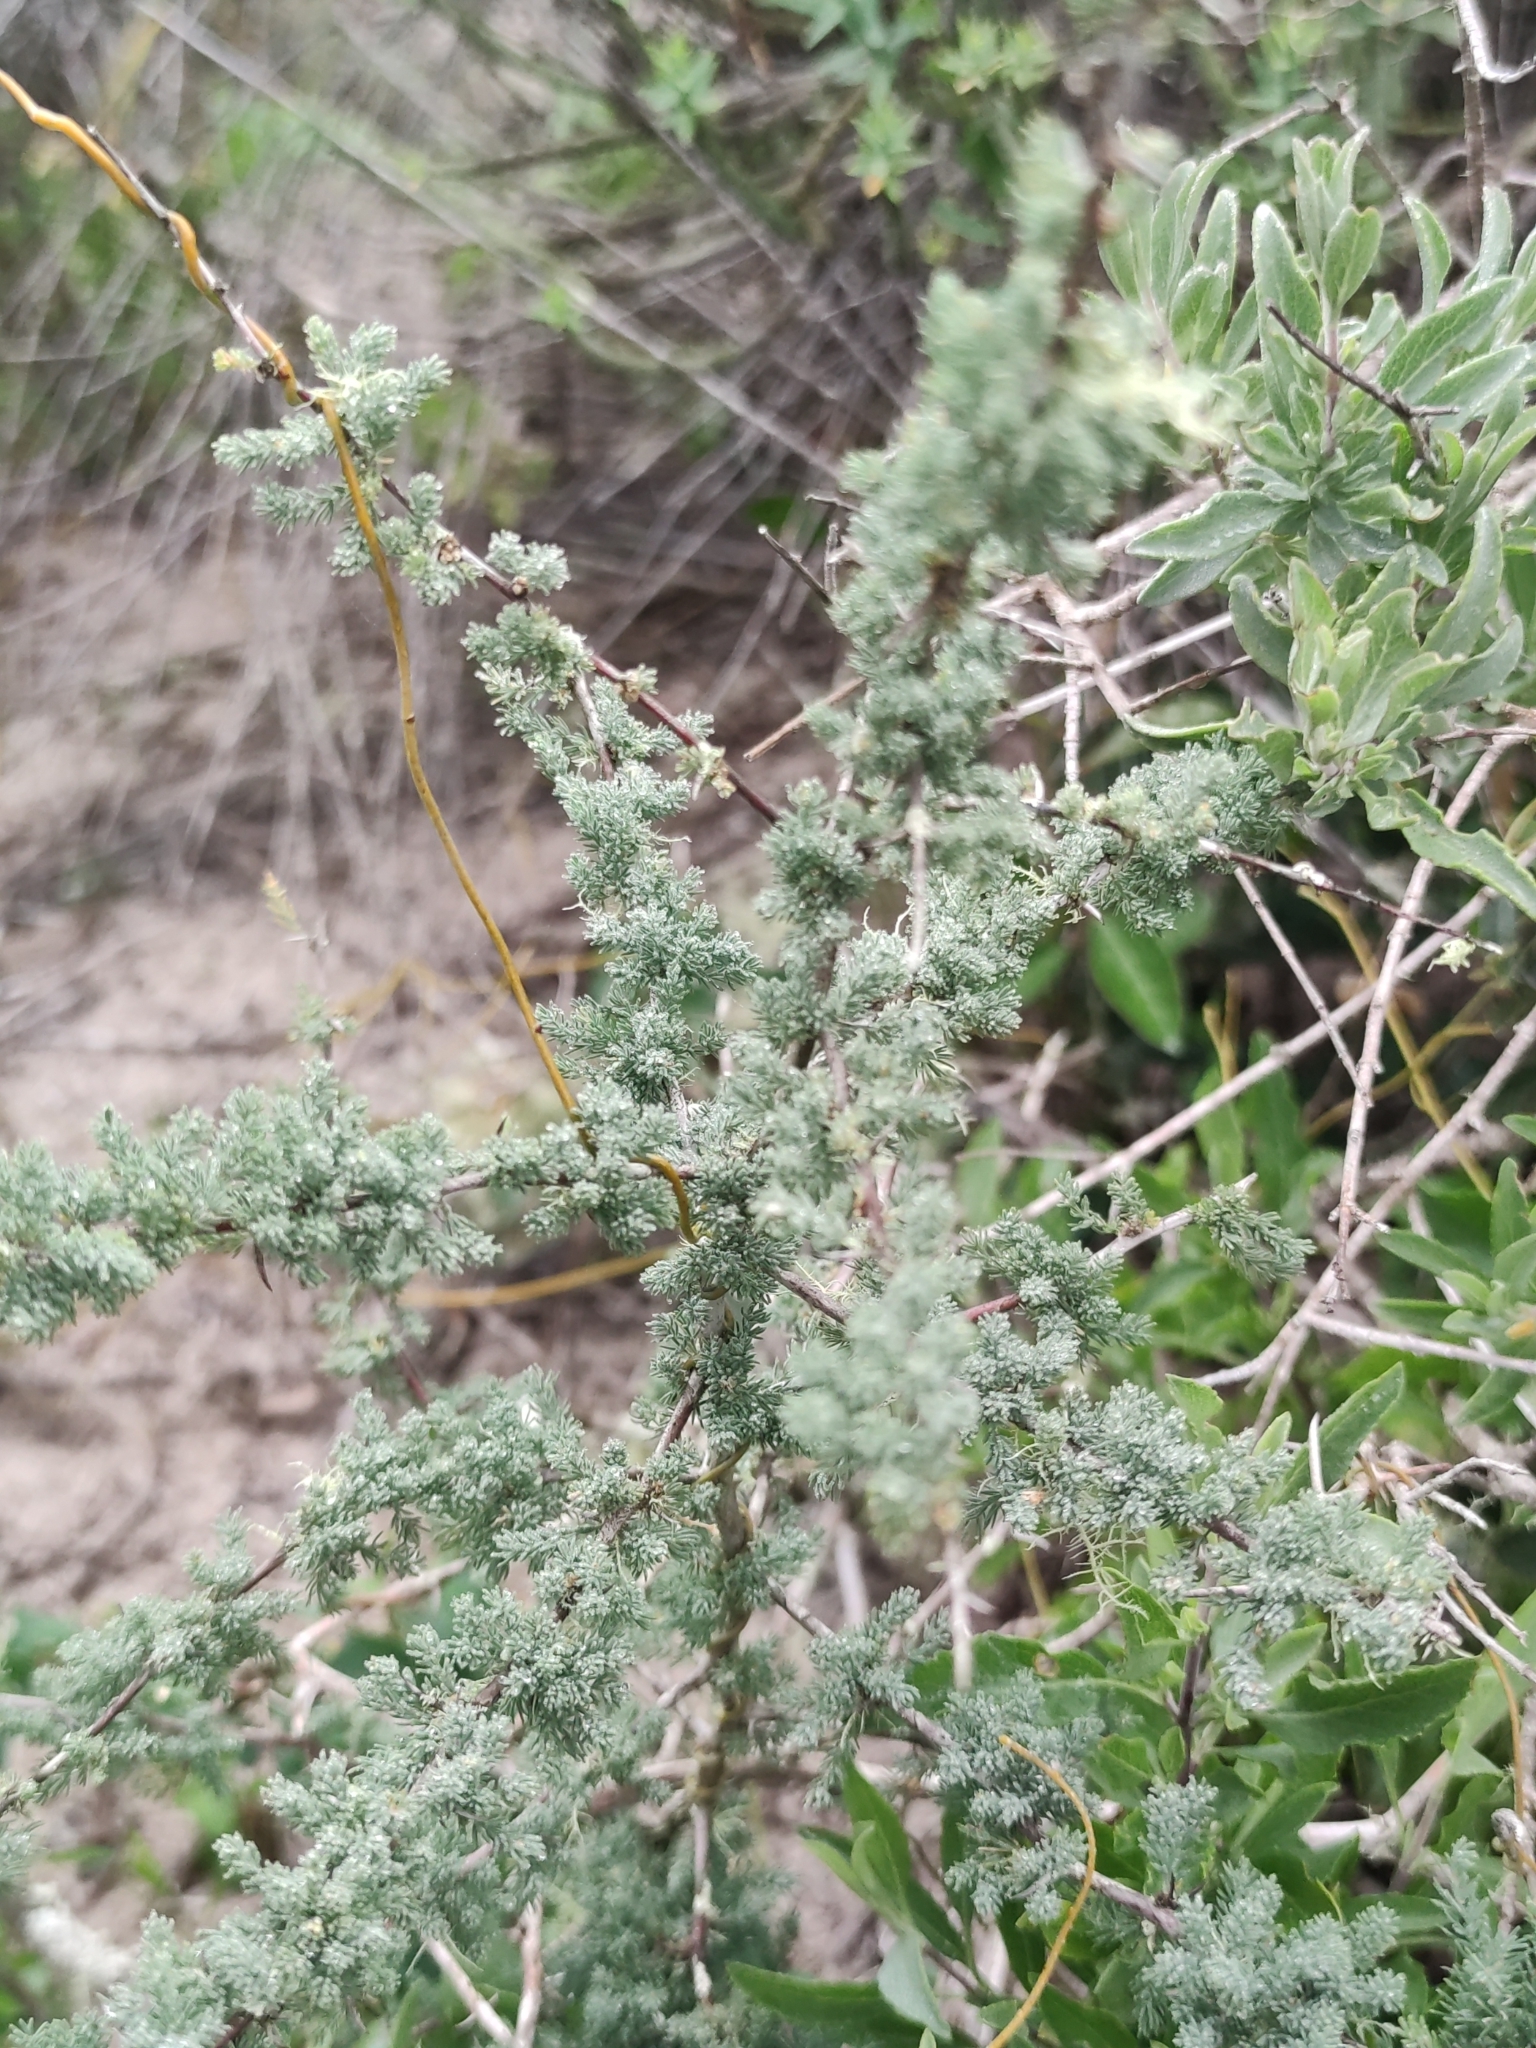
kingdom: Plantae
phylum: Tracheophyta
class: Liliopsida
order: Asparagales
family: Asparagaceae
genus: Asparagus
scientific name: Asparagus capensis
